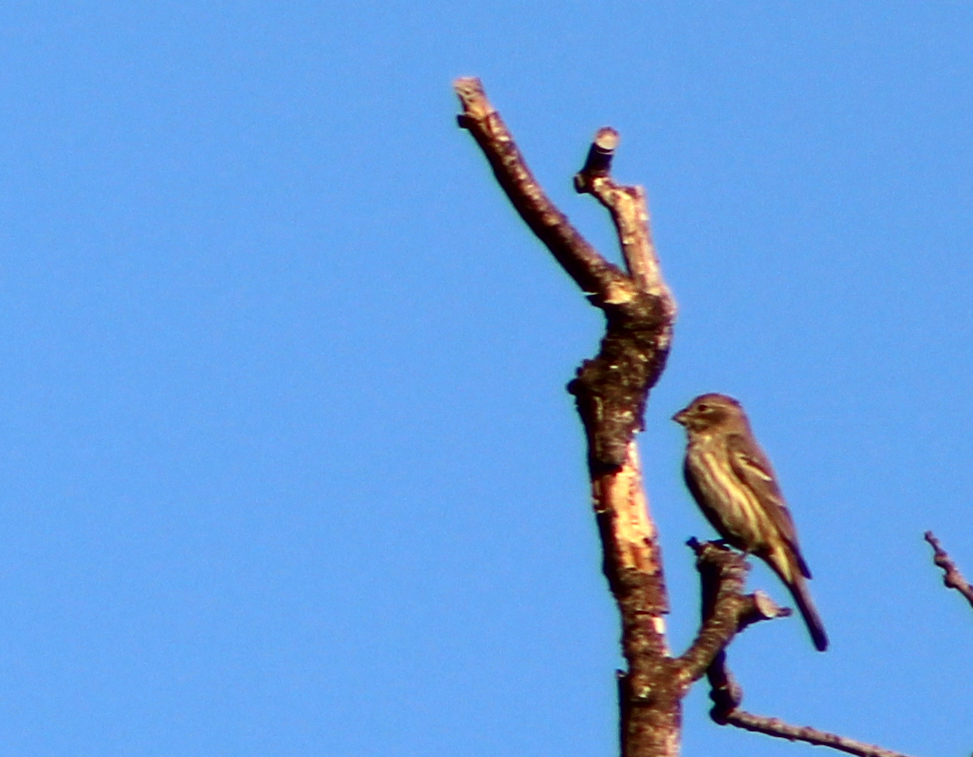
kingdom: Animalia
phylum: Chordata
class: Aves
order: Passeriformes
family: Fringillidae
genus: Haemorhous
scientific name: Haemorhous mexicanus
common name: House finch
